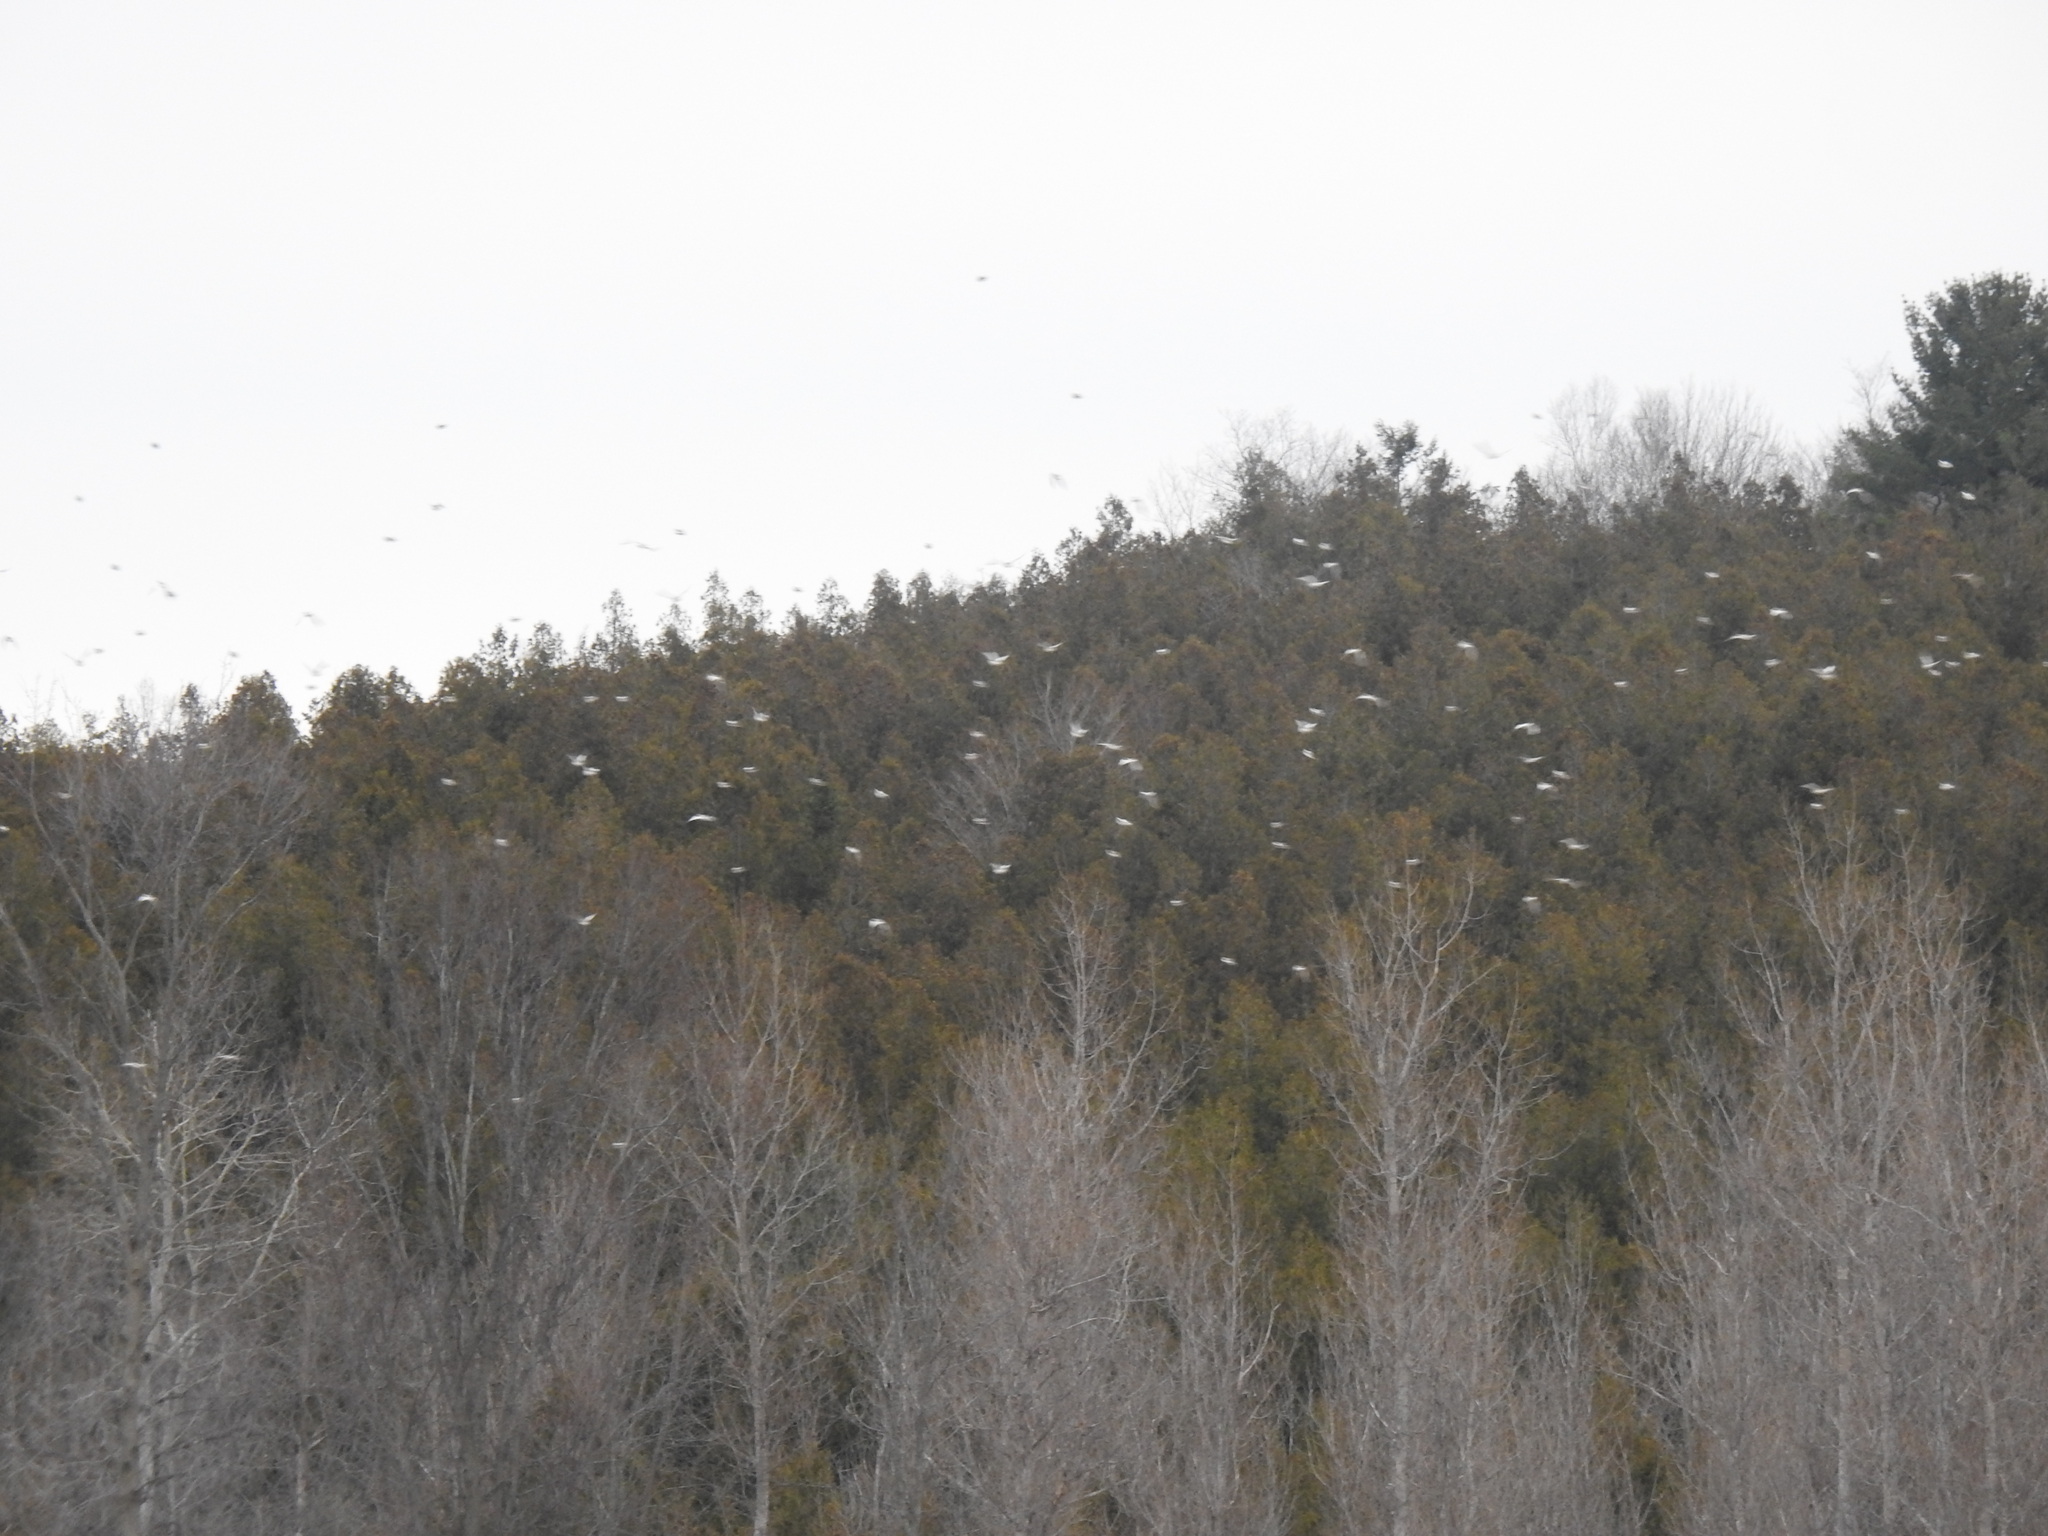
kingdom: Animalia
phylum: Chordata
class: Aves
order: Passeriformes
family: Calcariidae
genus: Plectrophenax
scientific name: Plectrophenax nivalis
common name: Snow bunting
